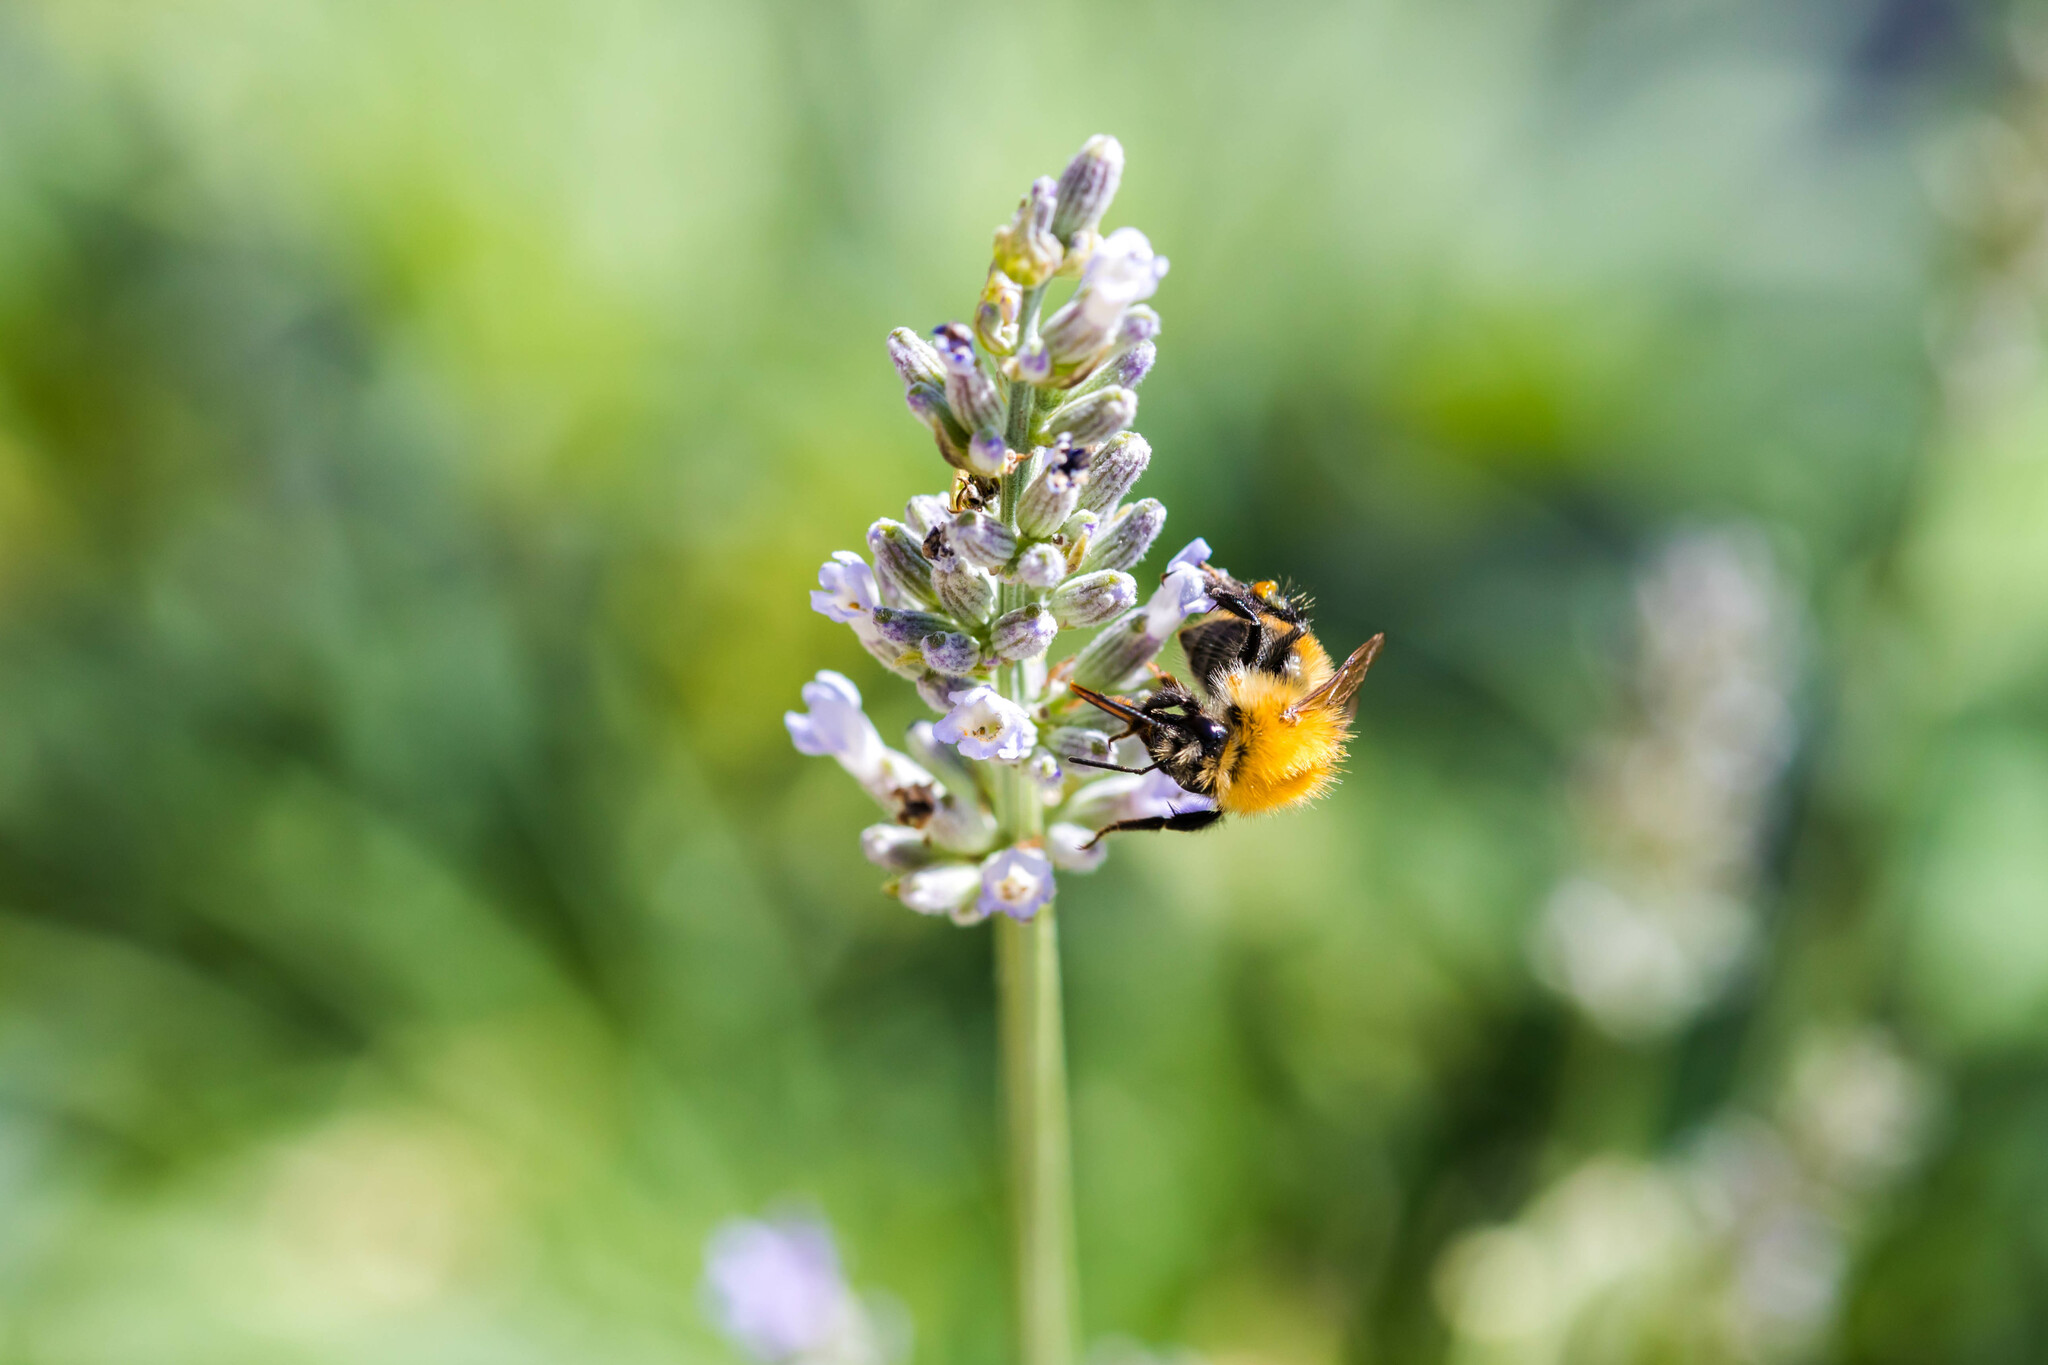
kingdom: Animalia
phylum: Arthropoda
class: Insecta
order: Hymenoptera
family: Apidae
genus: Bombus
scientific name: Bombus pascuorum
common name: Common carder bee
